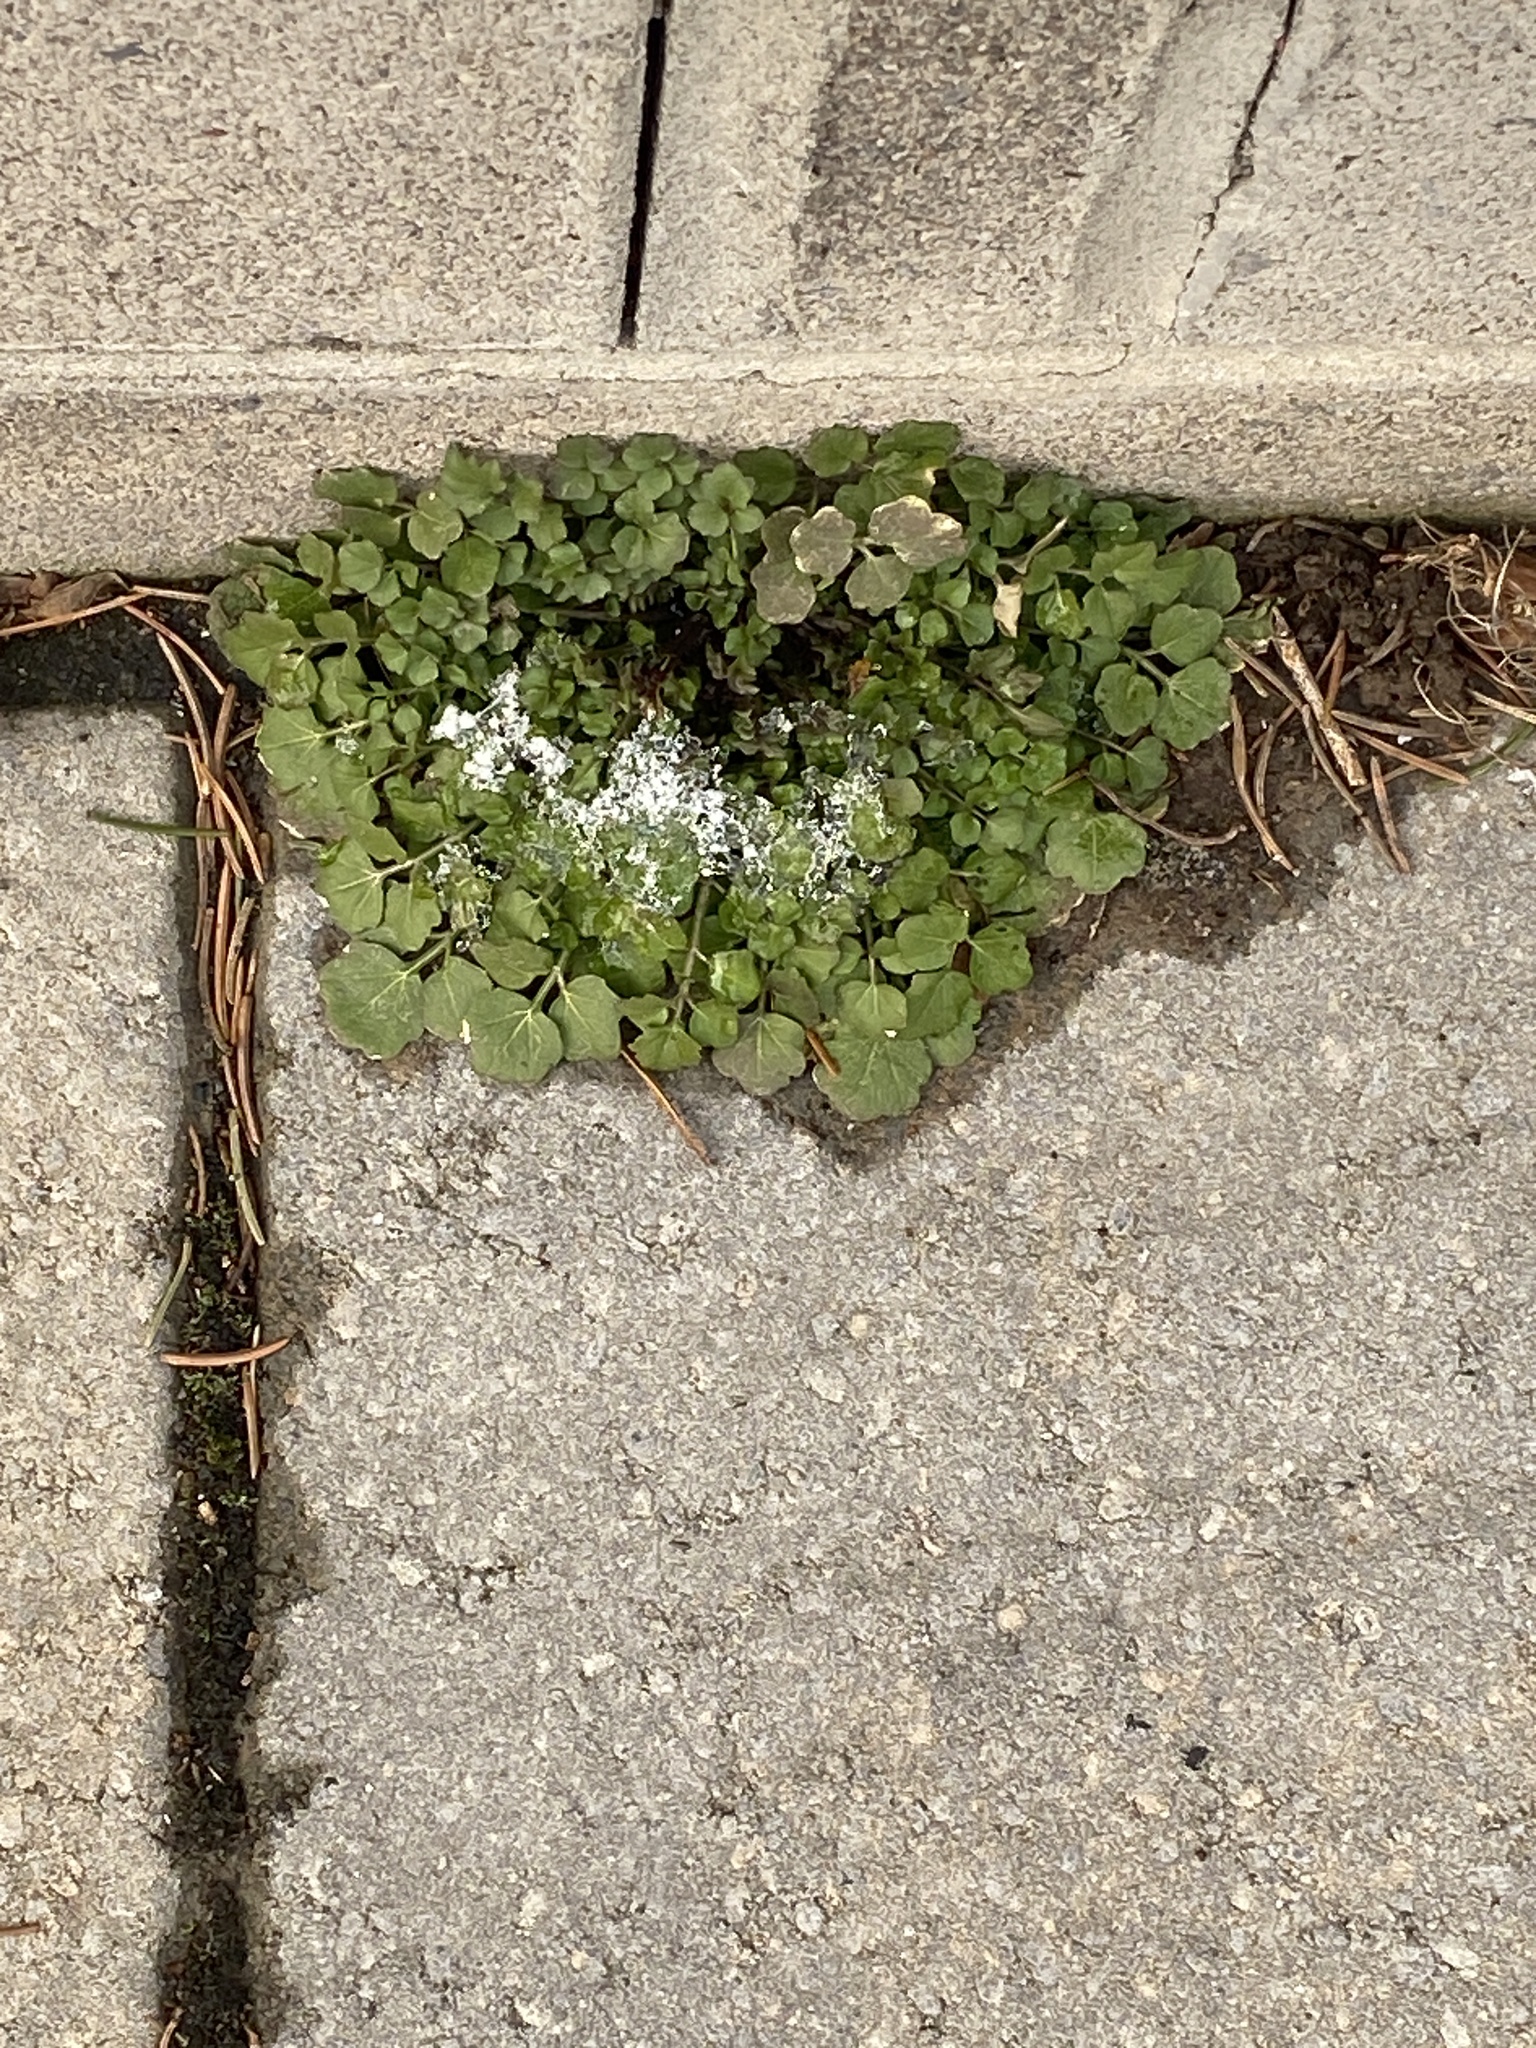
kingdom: Plantae
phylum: Tracheophyta
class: Magnoliopsida
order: Brassicales
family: Brassicaceae
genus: Cardamine
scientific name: Cardamine hirsuta
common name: Hairy bittercress
